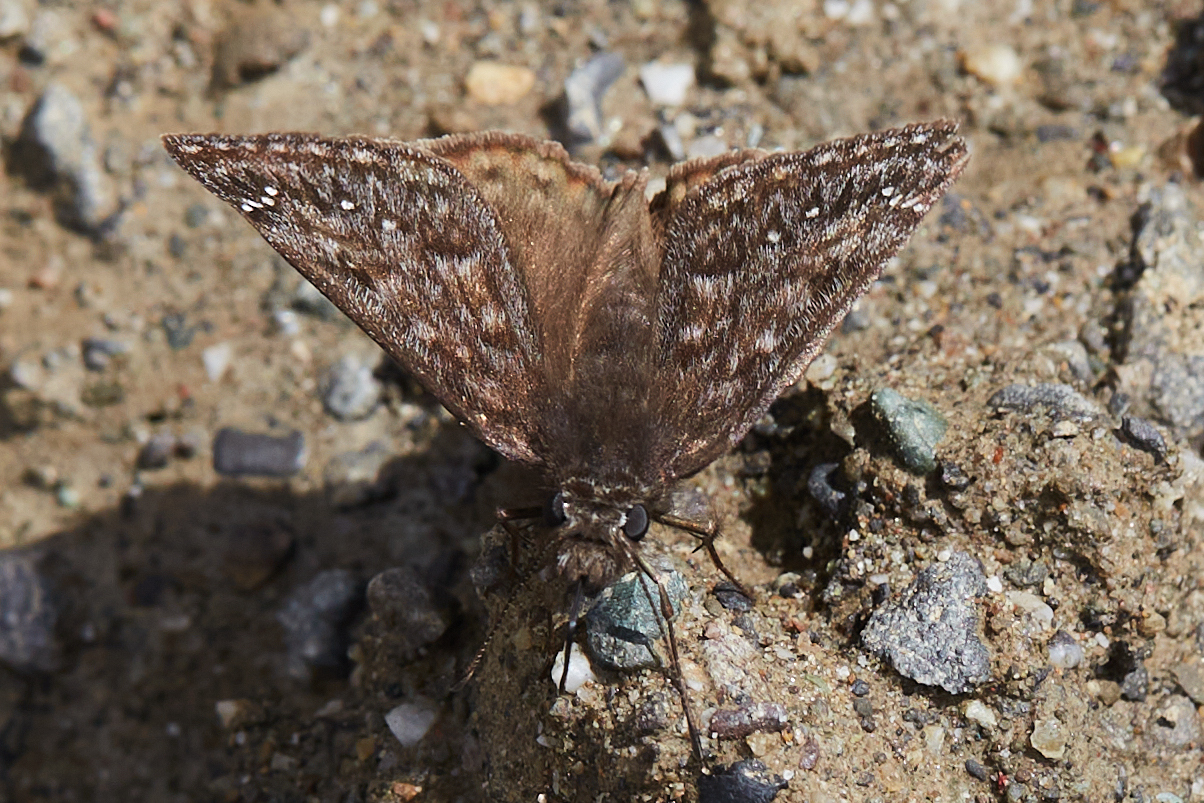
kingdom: Animalia
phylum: Arthropoda
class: Insecta
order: Lepidoptera
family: Hesperiidae
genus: Erynnis
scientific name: Erynnis propertius
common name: Propertius duskywing
